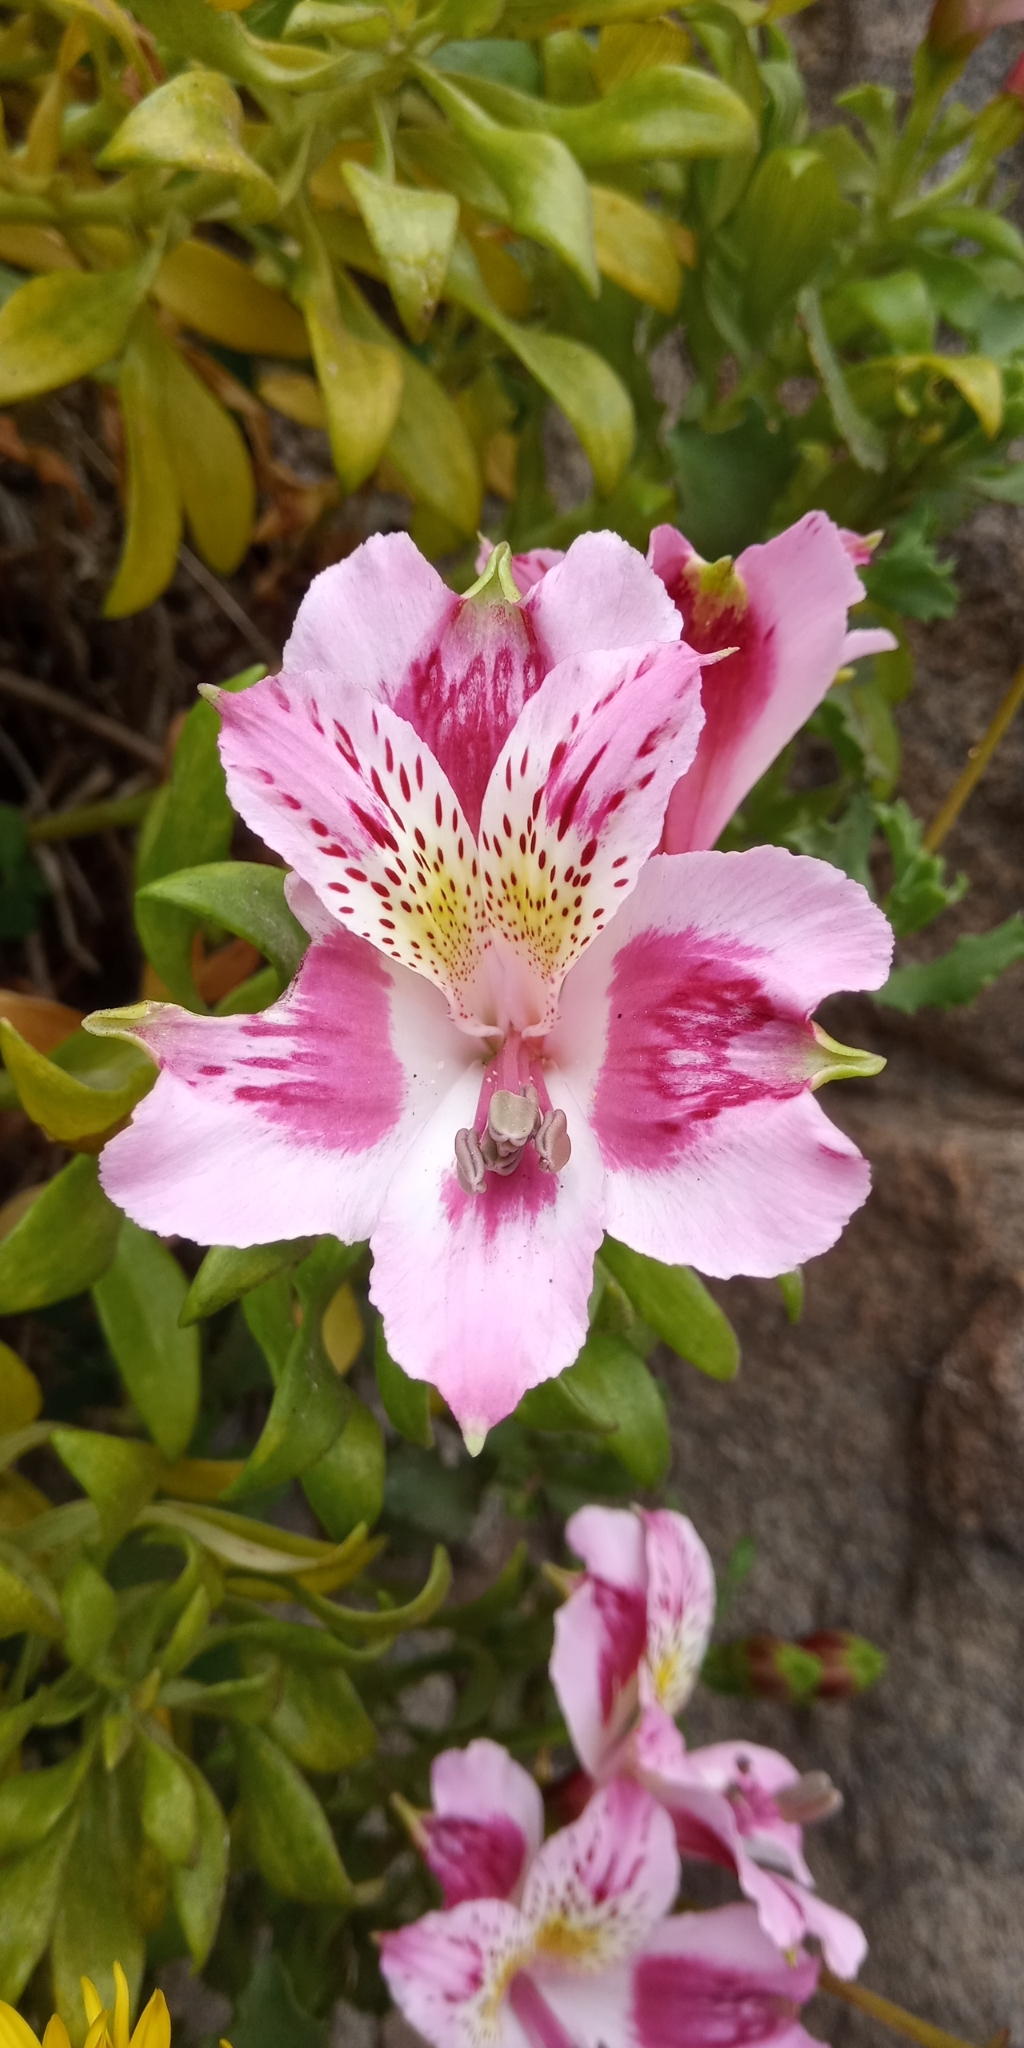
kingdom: Plantae
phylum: Tracheophyta
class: Liliopsida
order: Liliales
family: Alstroemeriaceae
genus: Alstroemeria
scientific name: Alstroemeria pelegrina
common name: Peruvian-lily
